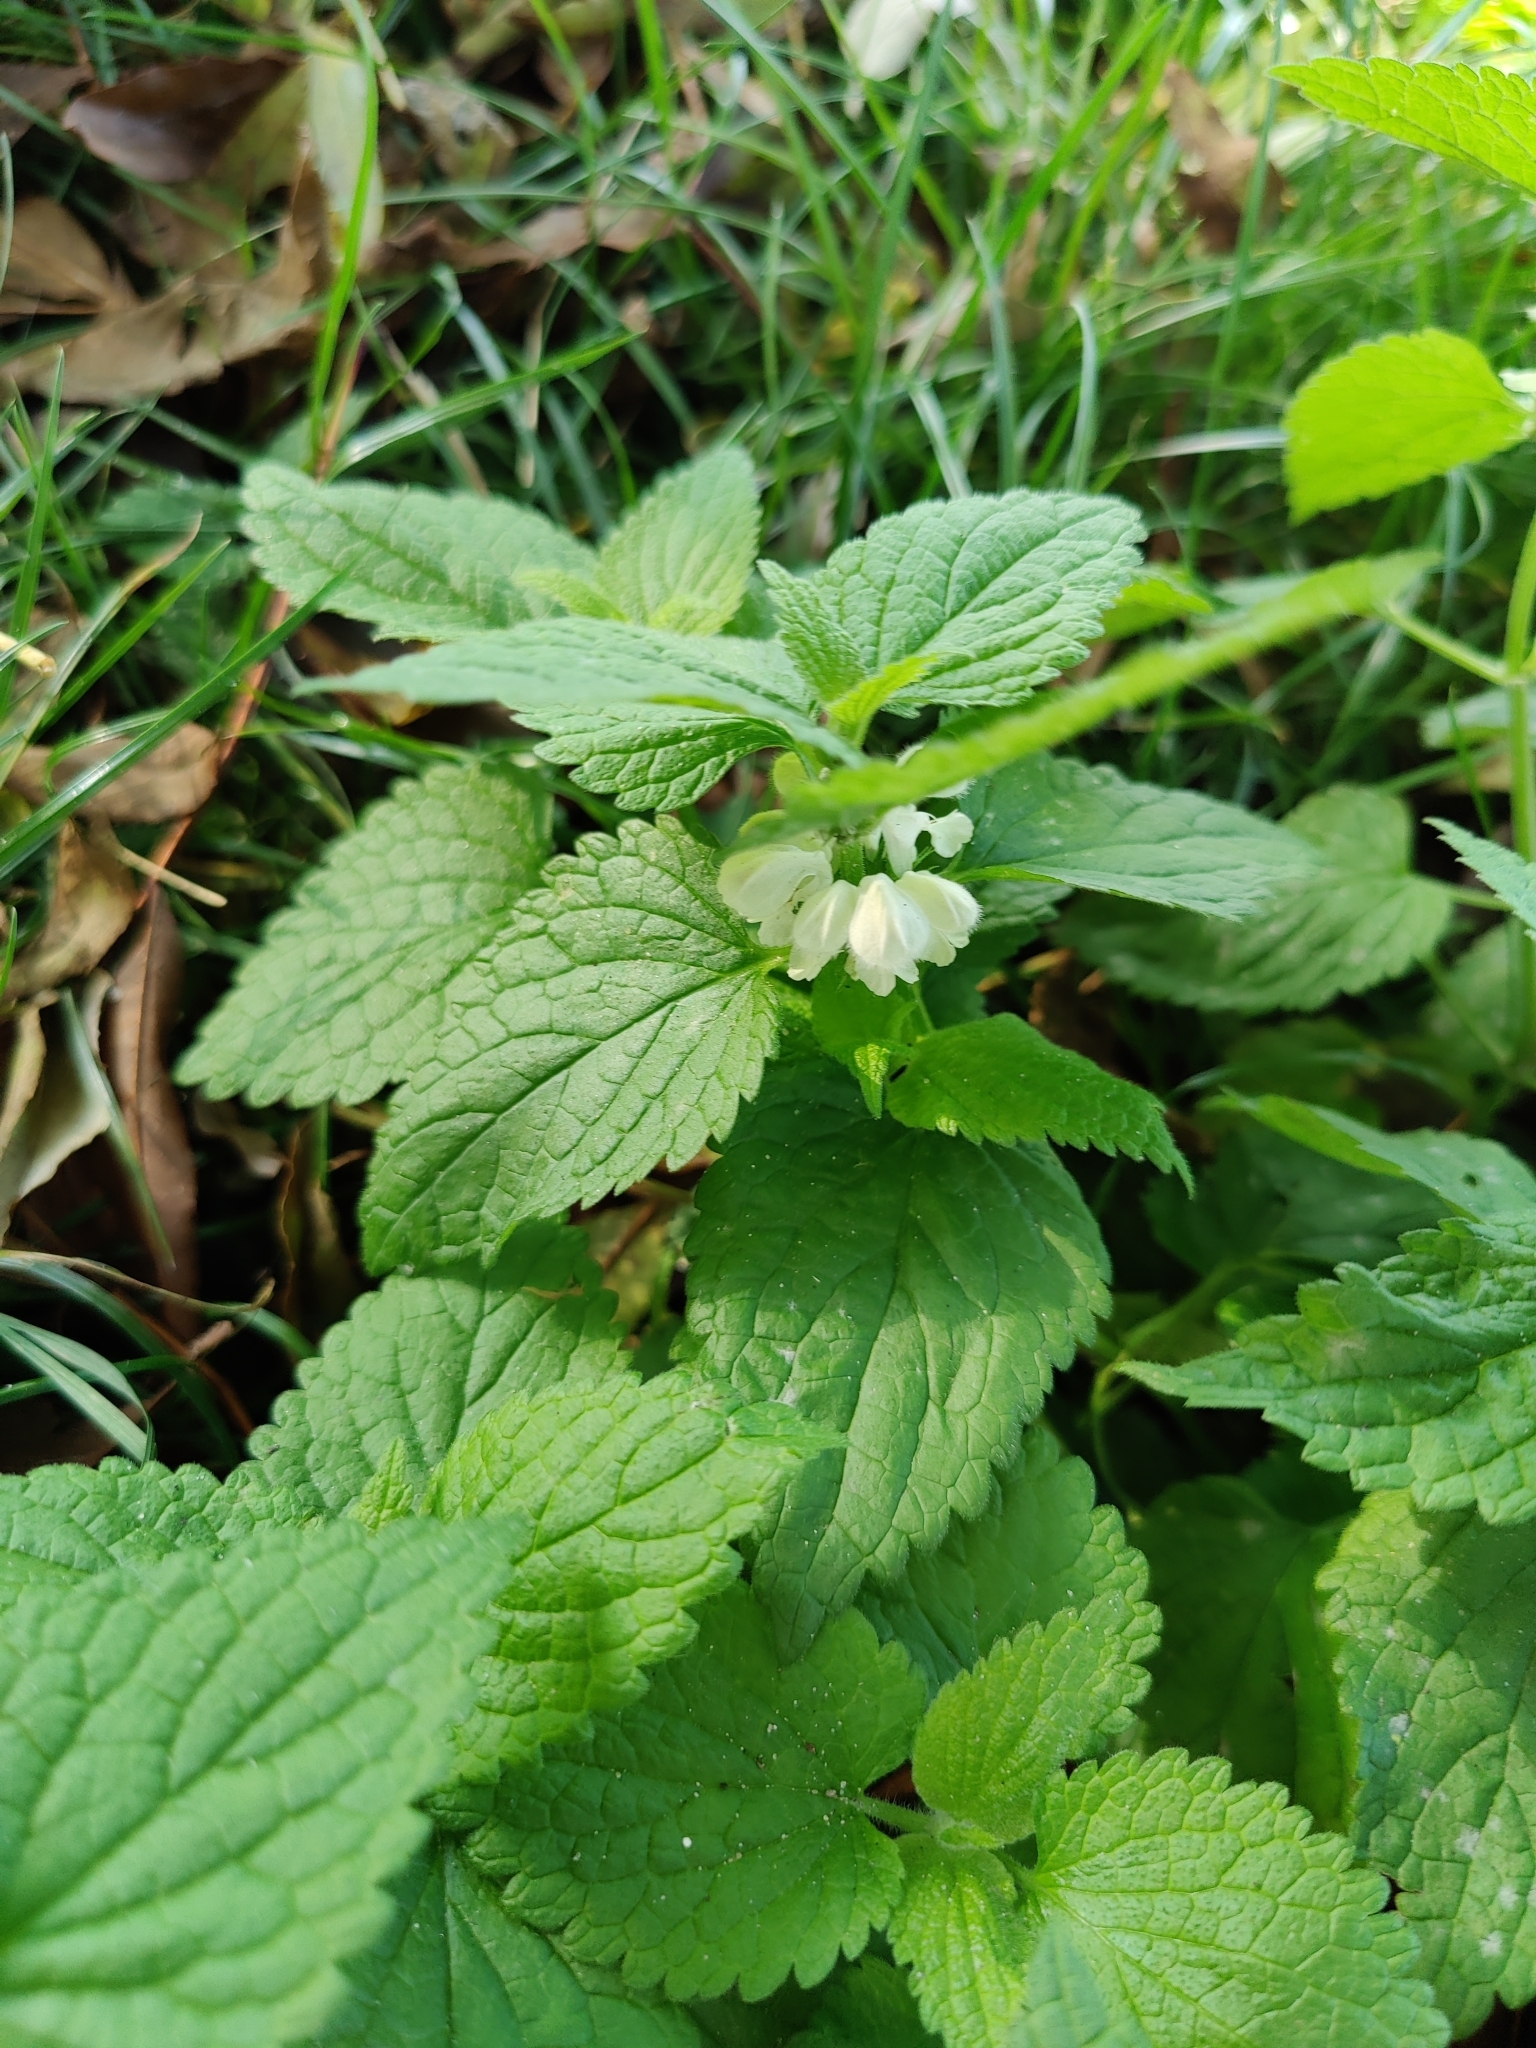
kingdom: Plantae
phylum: Tracheophyta
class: Magnoliopsida
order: Lamiales
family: Lamiaceae
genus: Lamium
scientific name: Lamium album
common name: White dead-nettle
